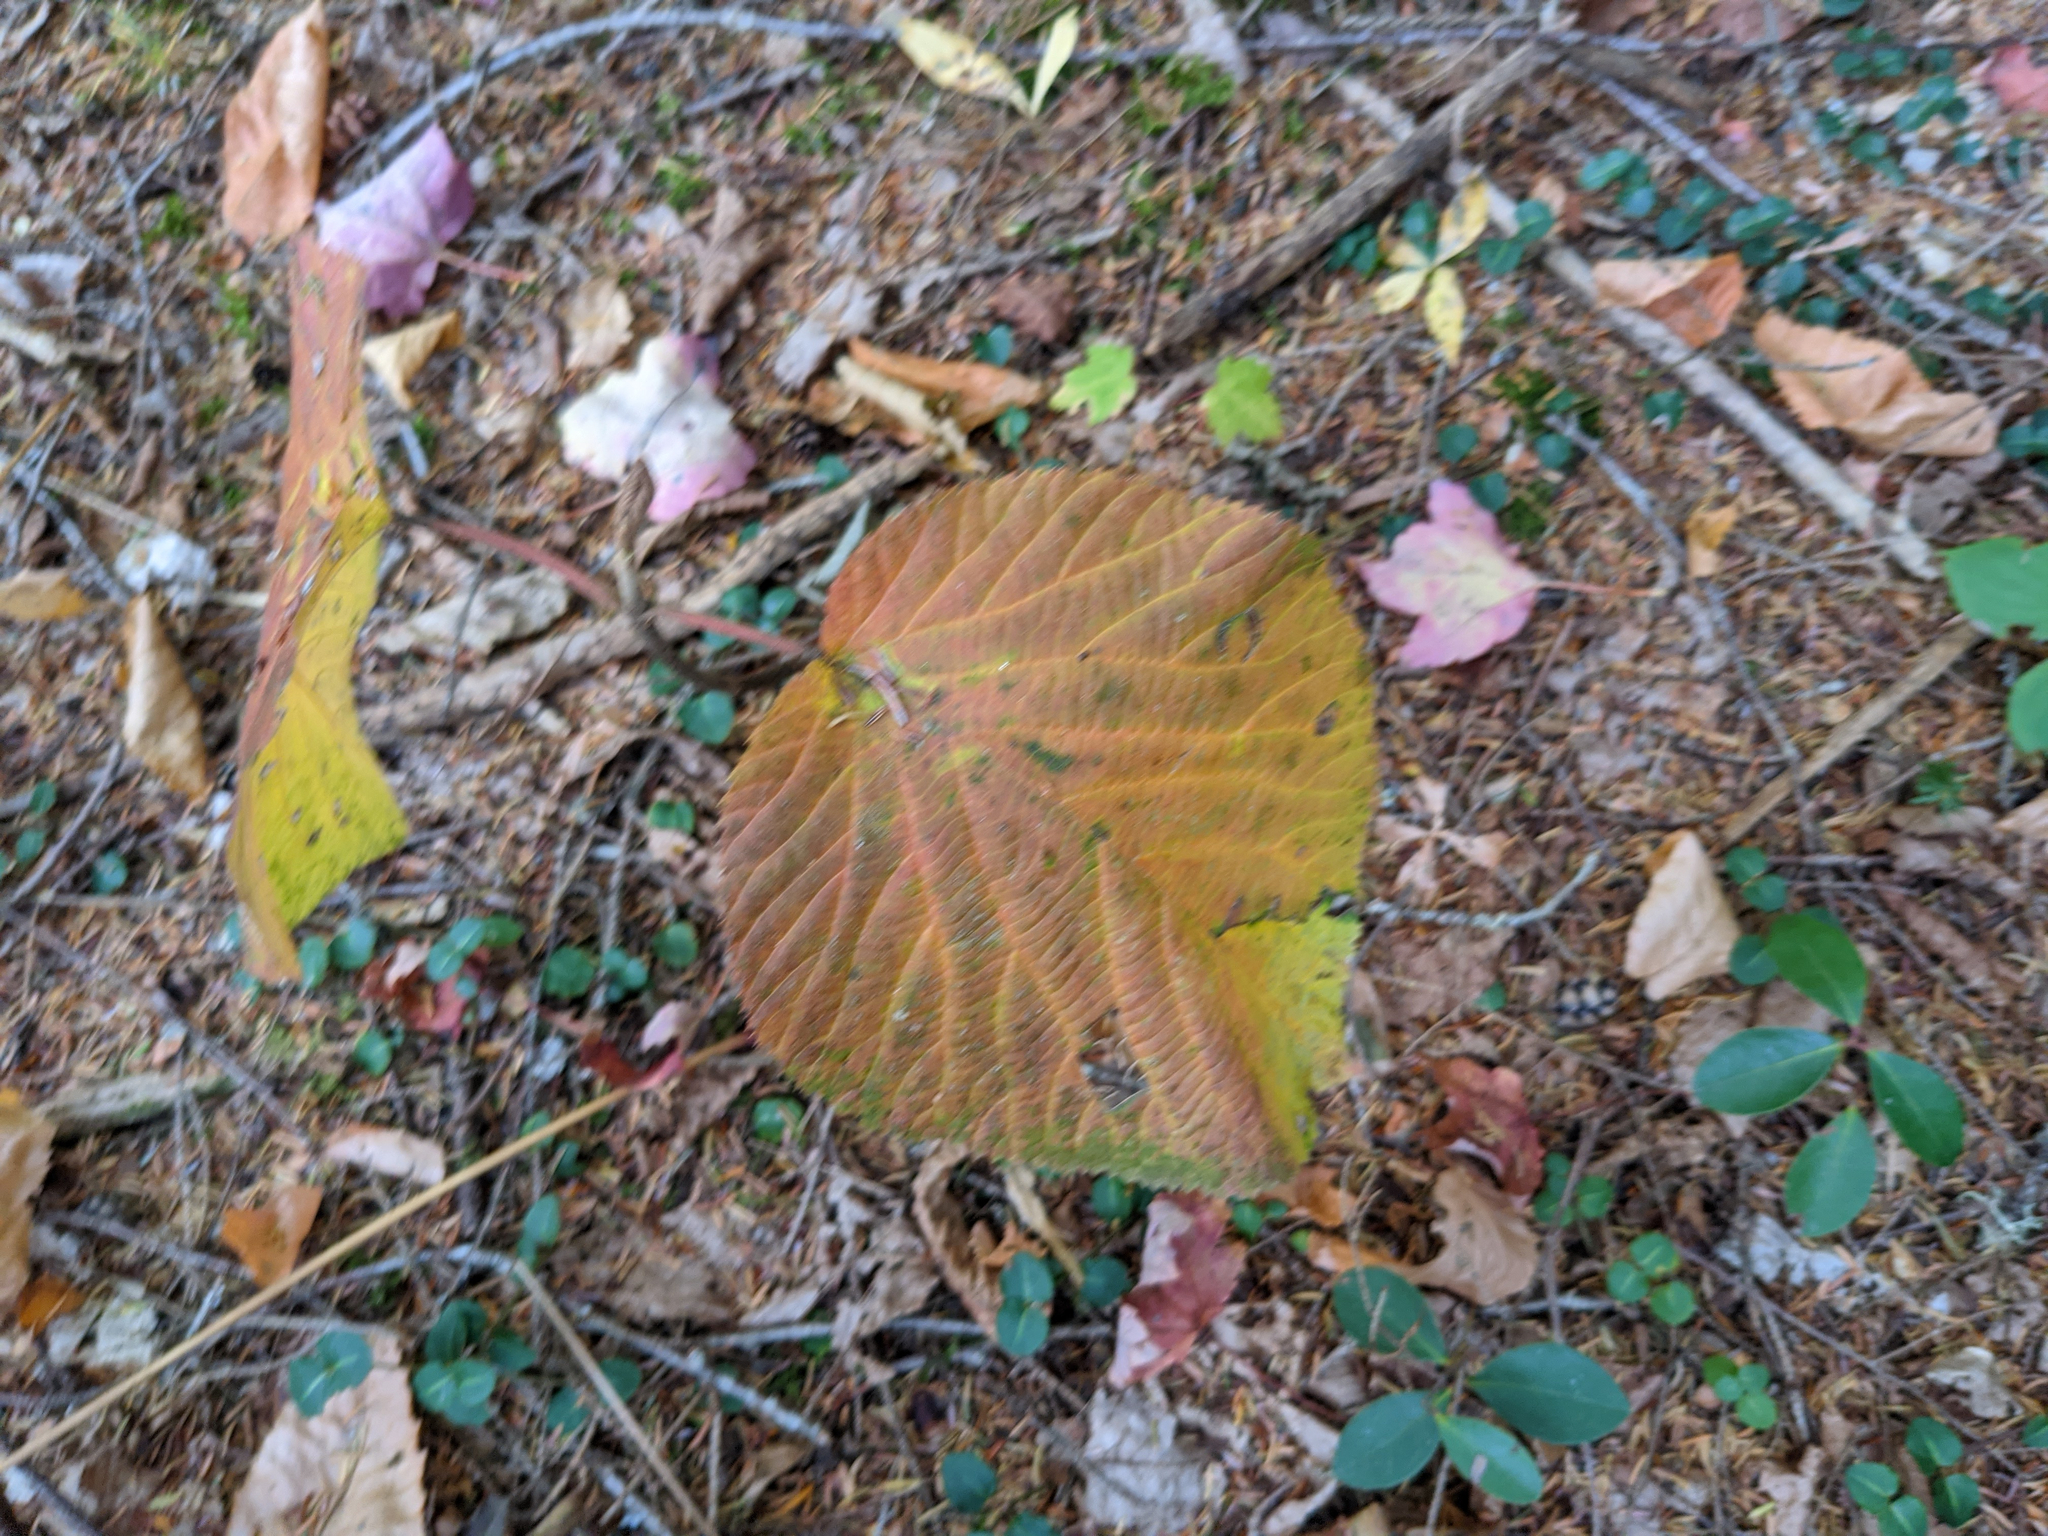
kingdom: Plantae
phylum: Tracheophyta
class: Magnoliopsida
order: Dipsacales
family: Viburnaceae
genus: Viburnum
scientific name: Viburnum lantanoides
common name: Hobblebush
